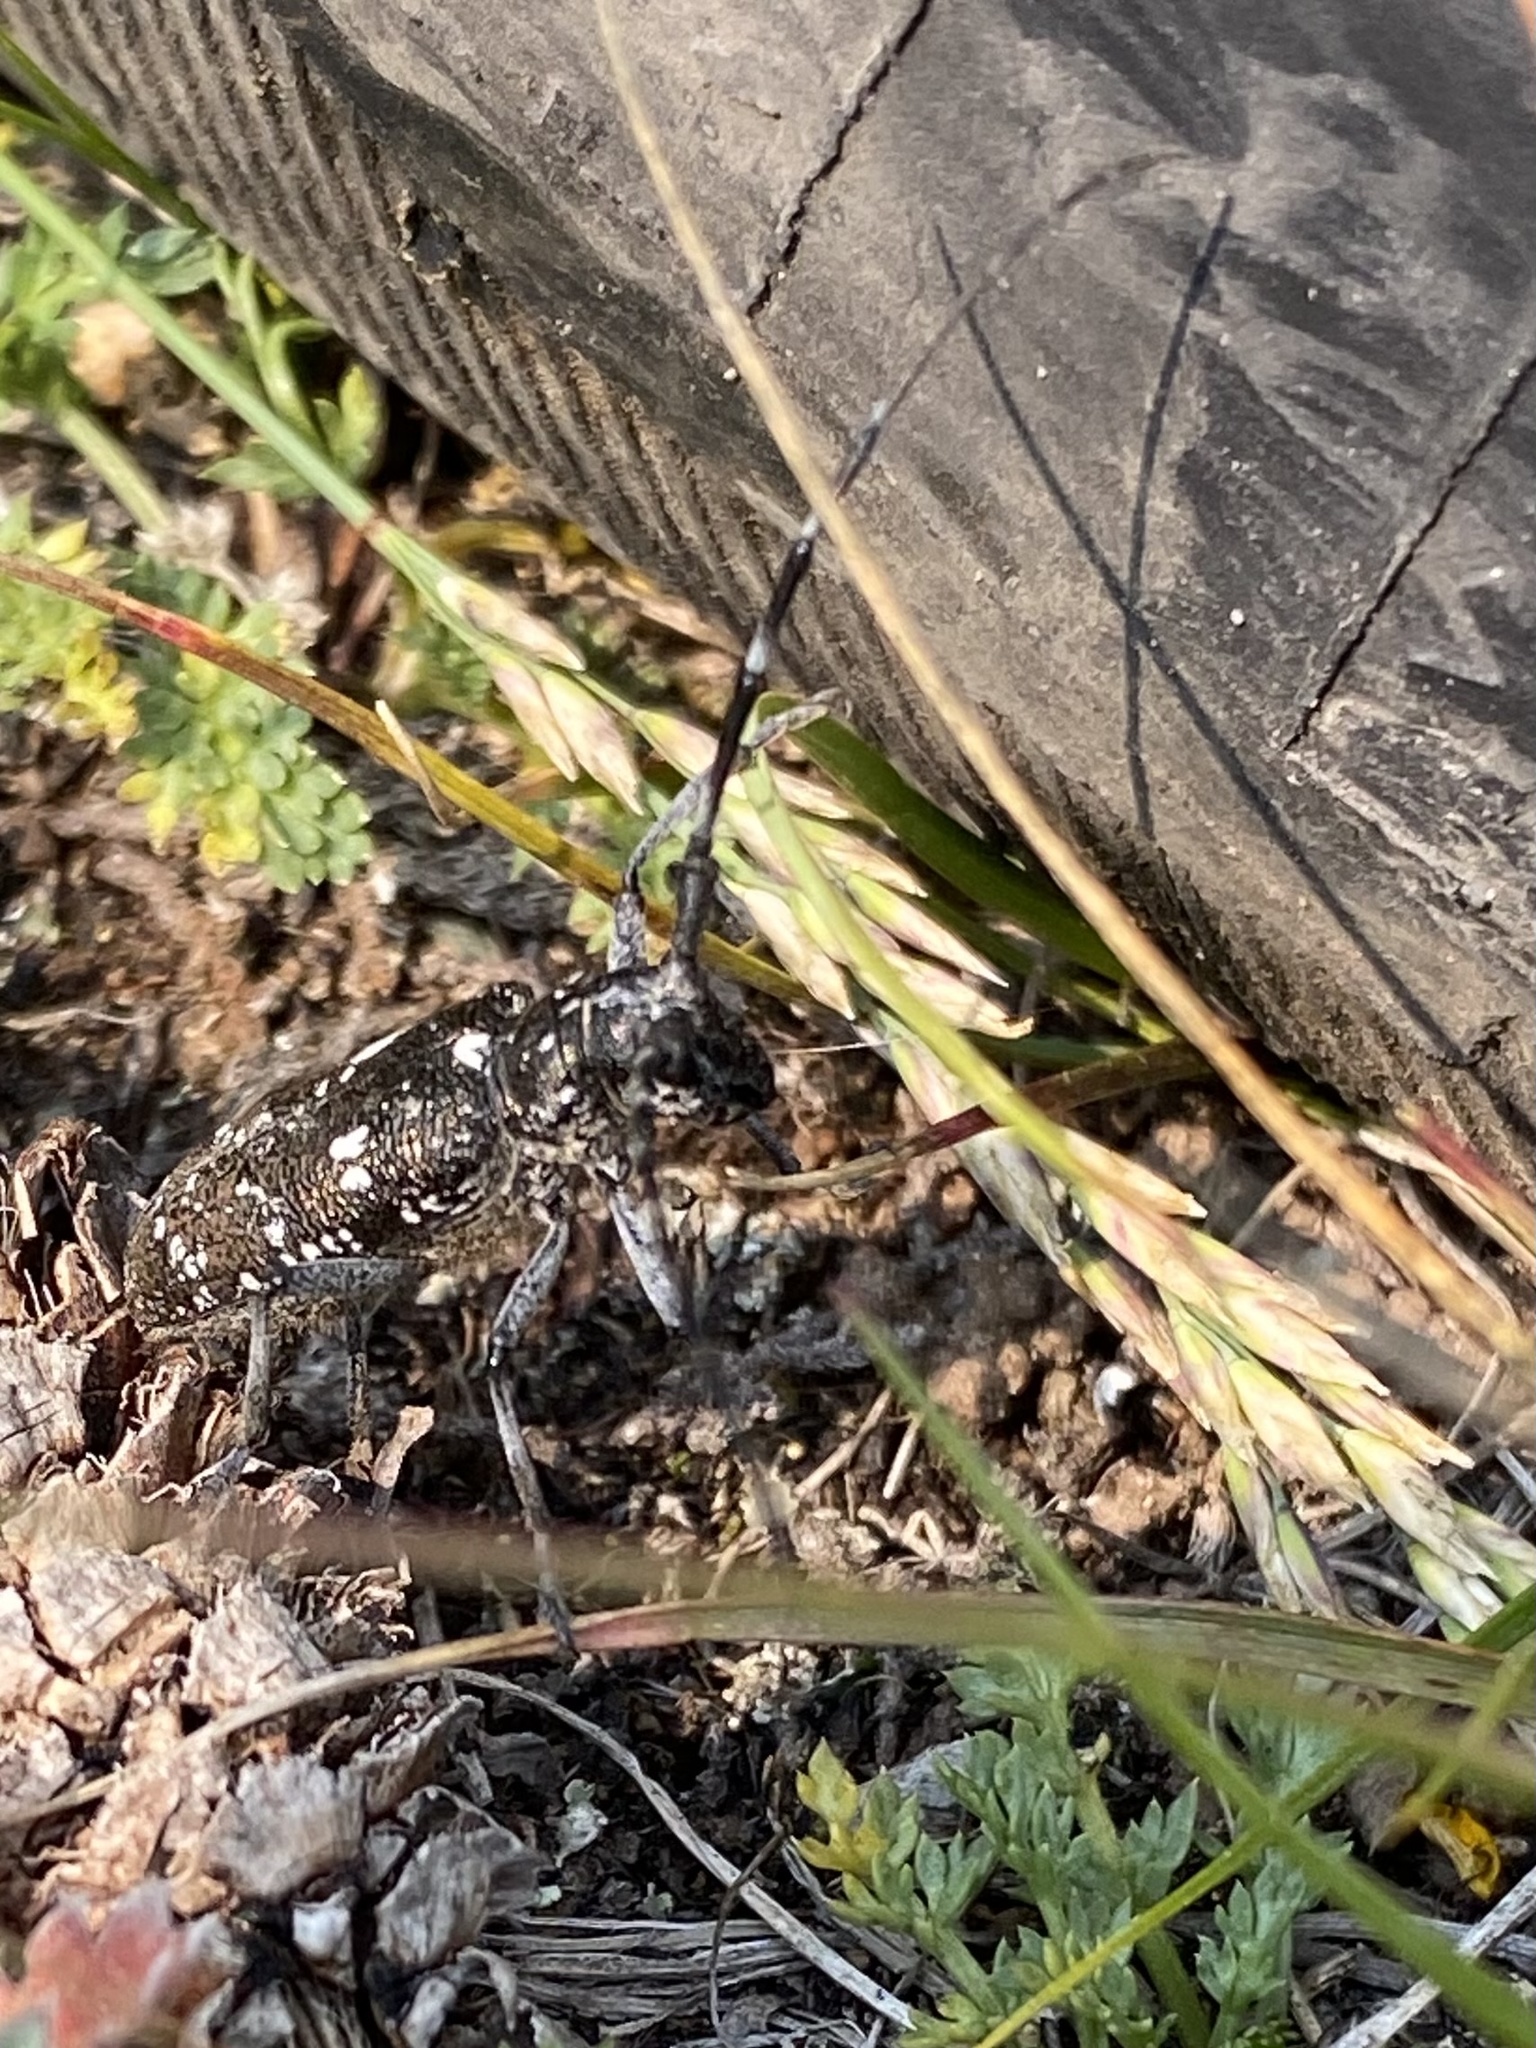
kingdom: Animalia
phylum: Arthropoda
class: Insecta
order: Coleoptera
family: Cerambycidae
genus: Monochamus
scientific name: Monochamus scutellatus
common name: White-spotted sawyer beetle
